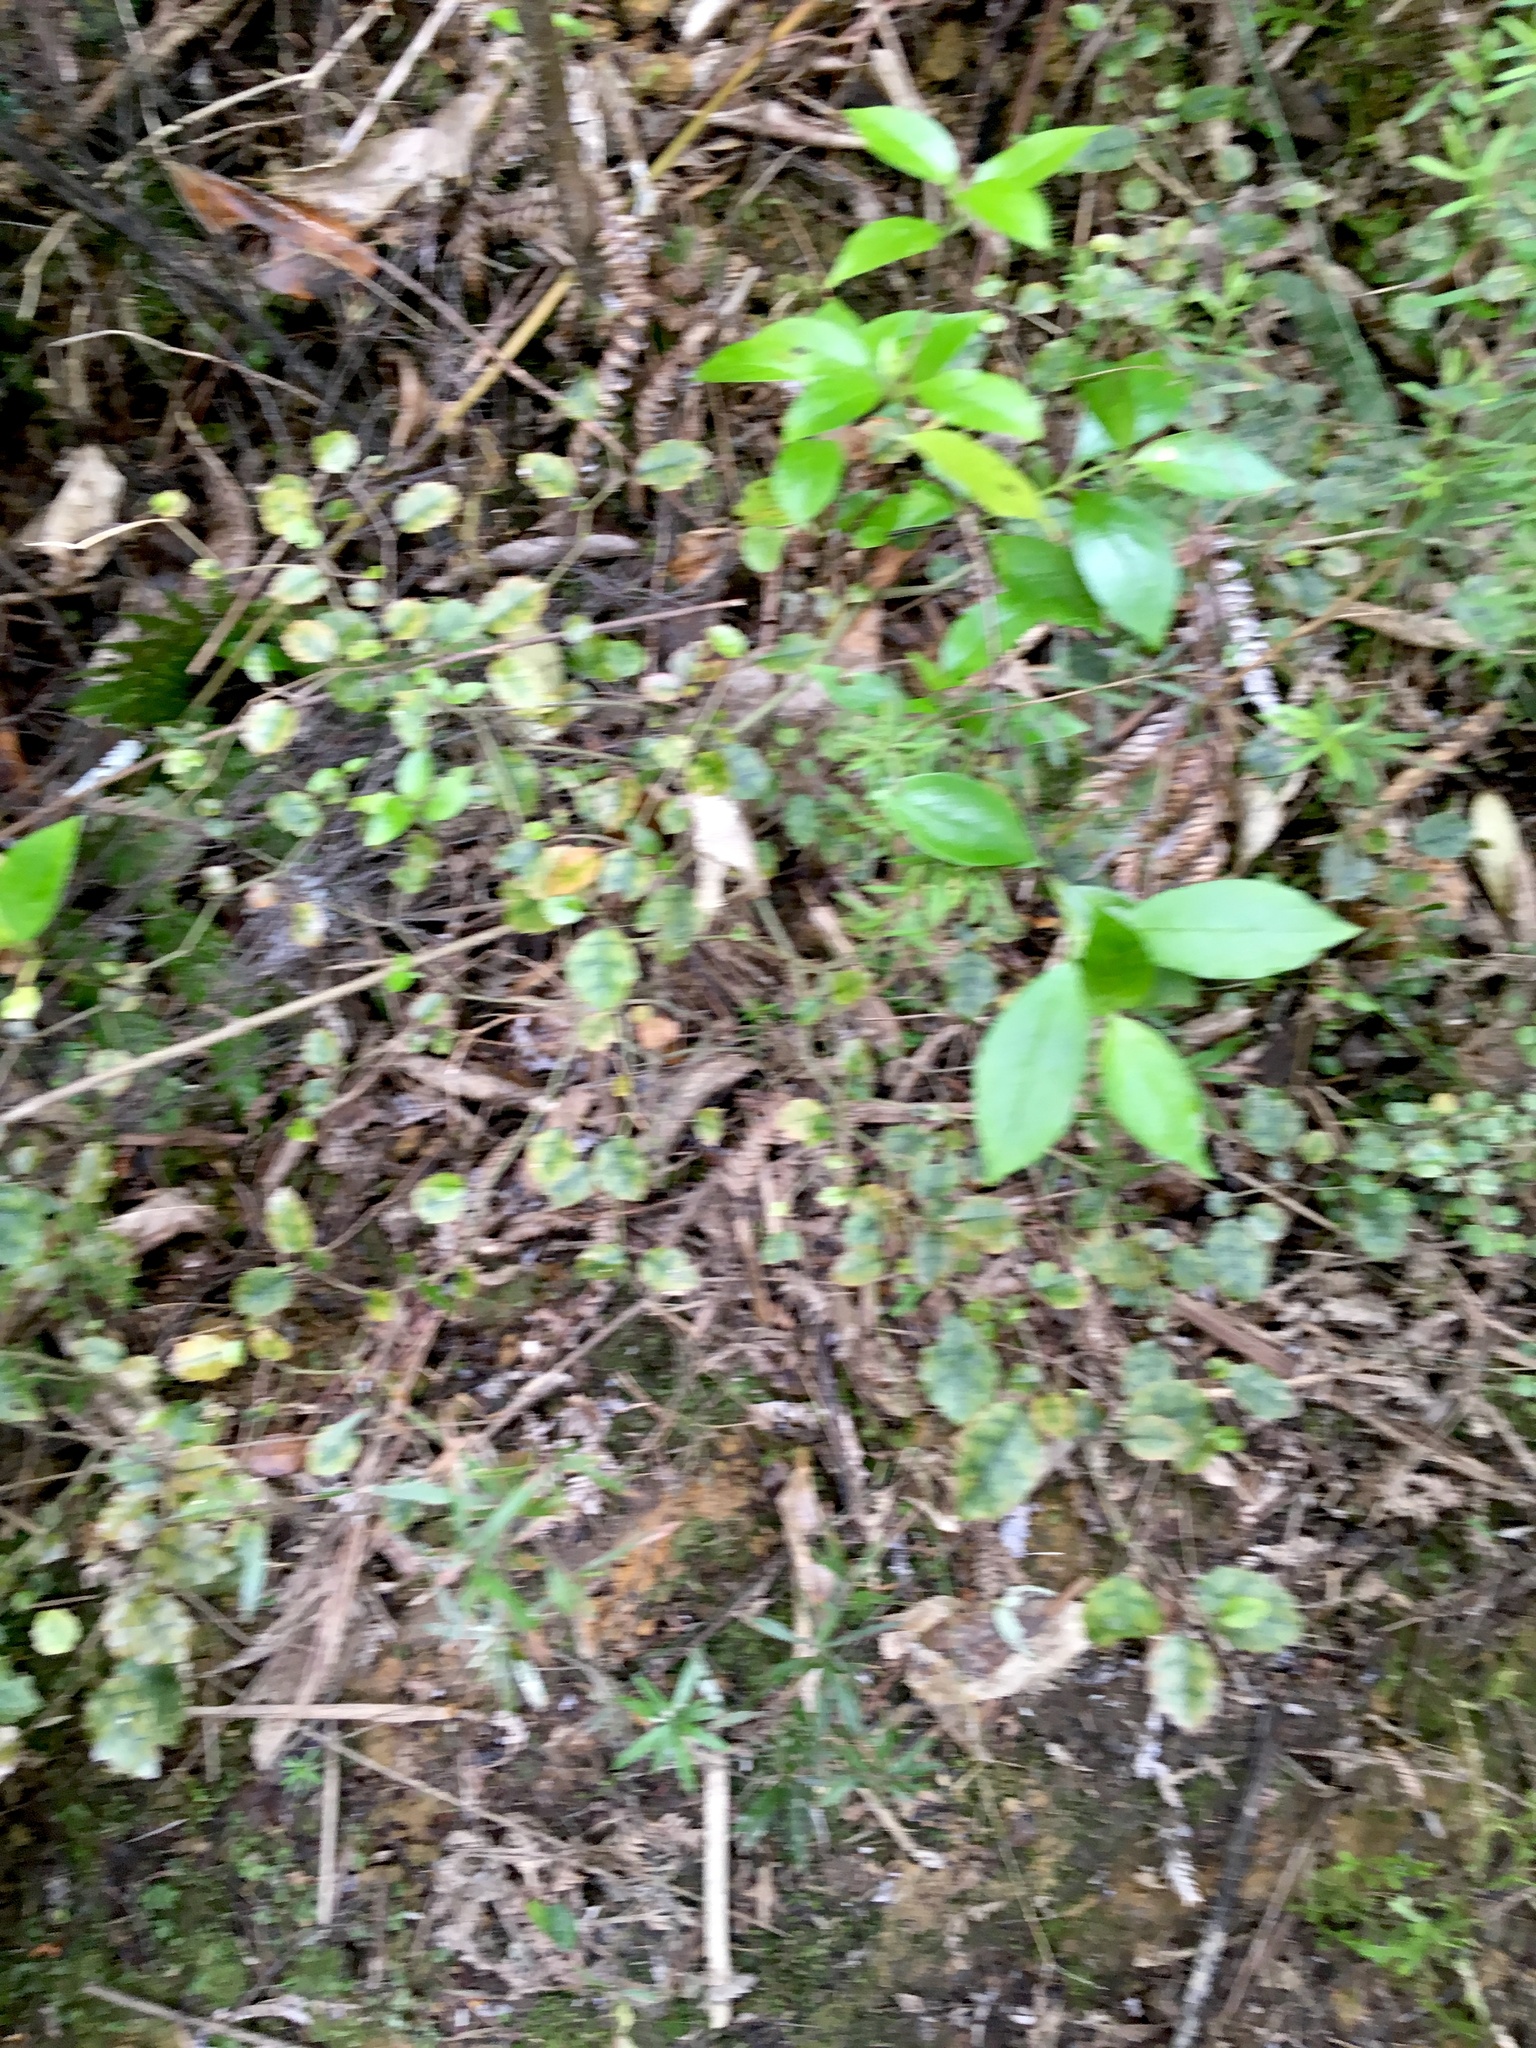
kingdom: Plantae
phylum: Tracheophyta
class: Magnoliopsida
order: Asterales
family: Rousseaceae
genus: Carpodetus
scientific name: Carpodetus serratus
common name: White mapau
